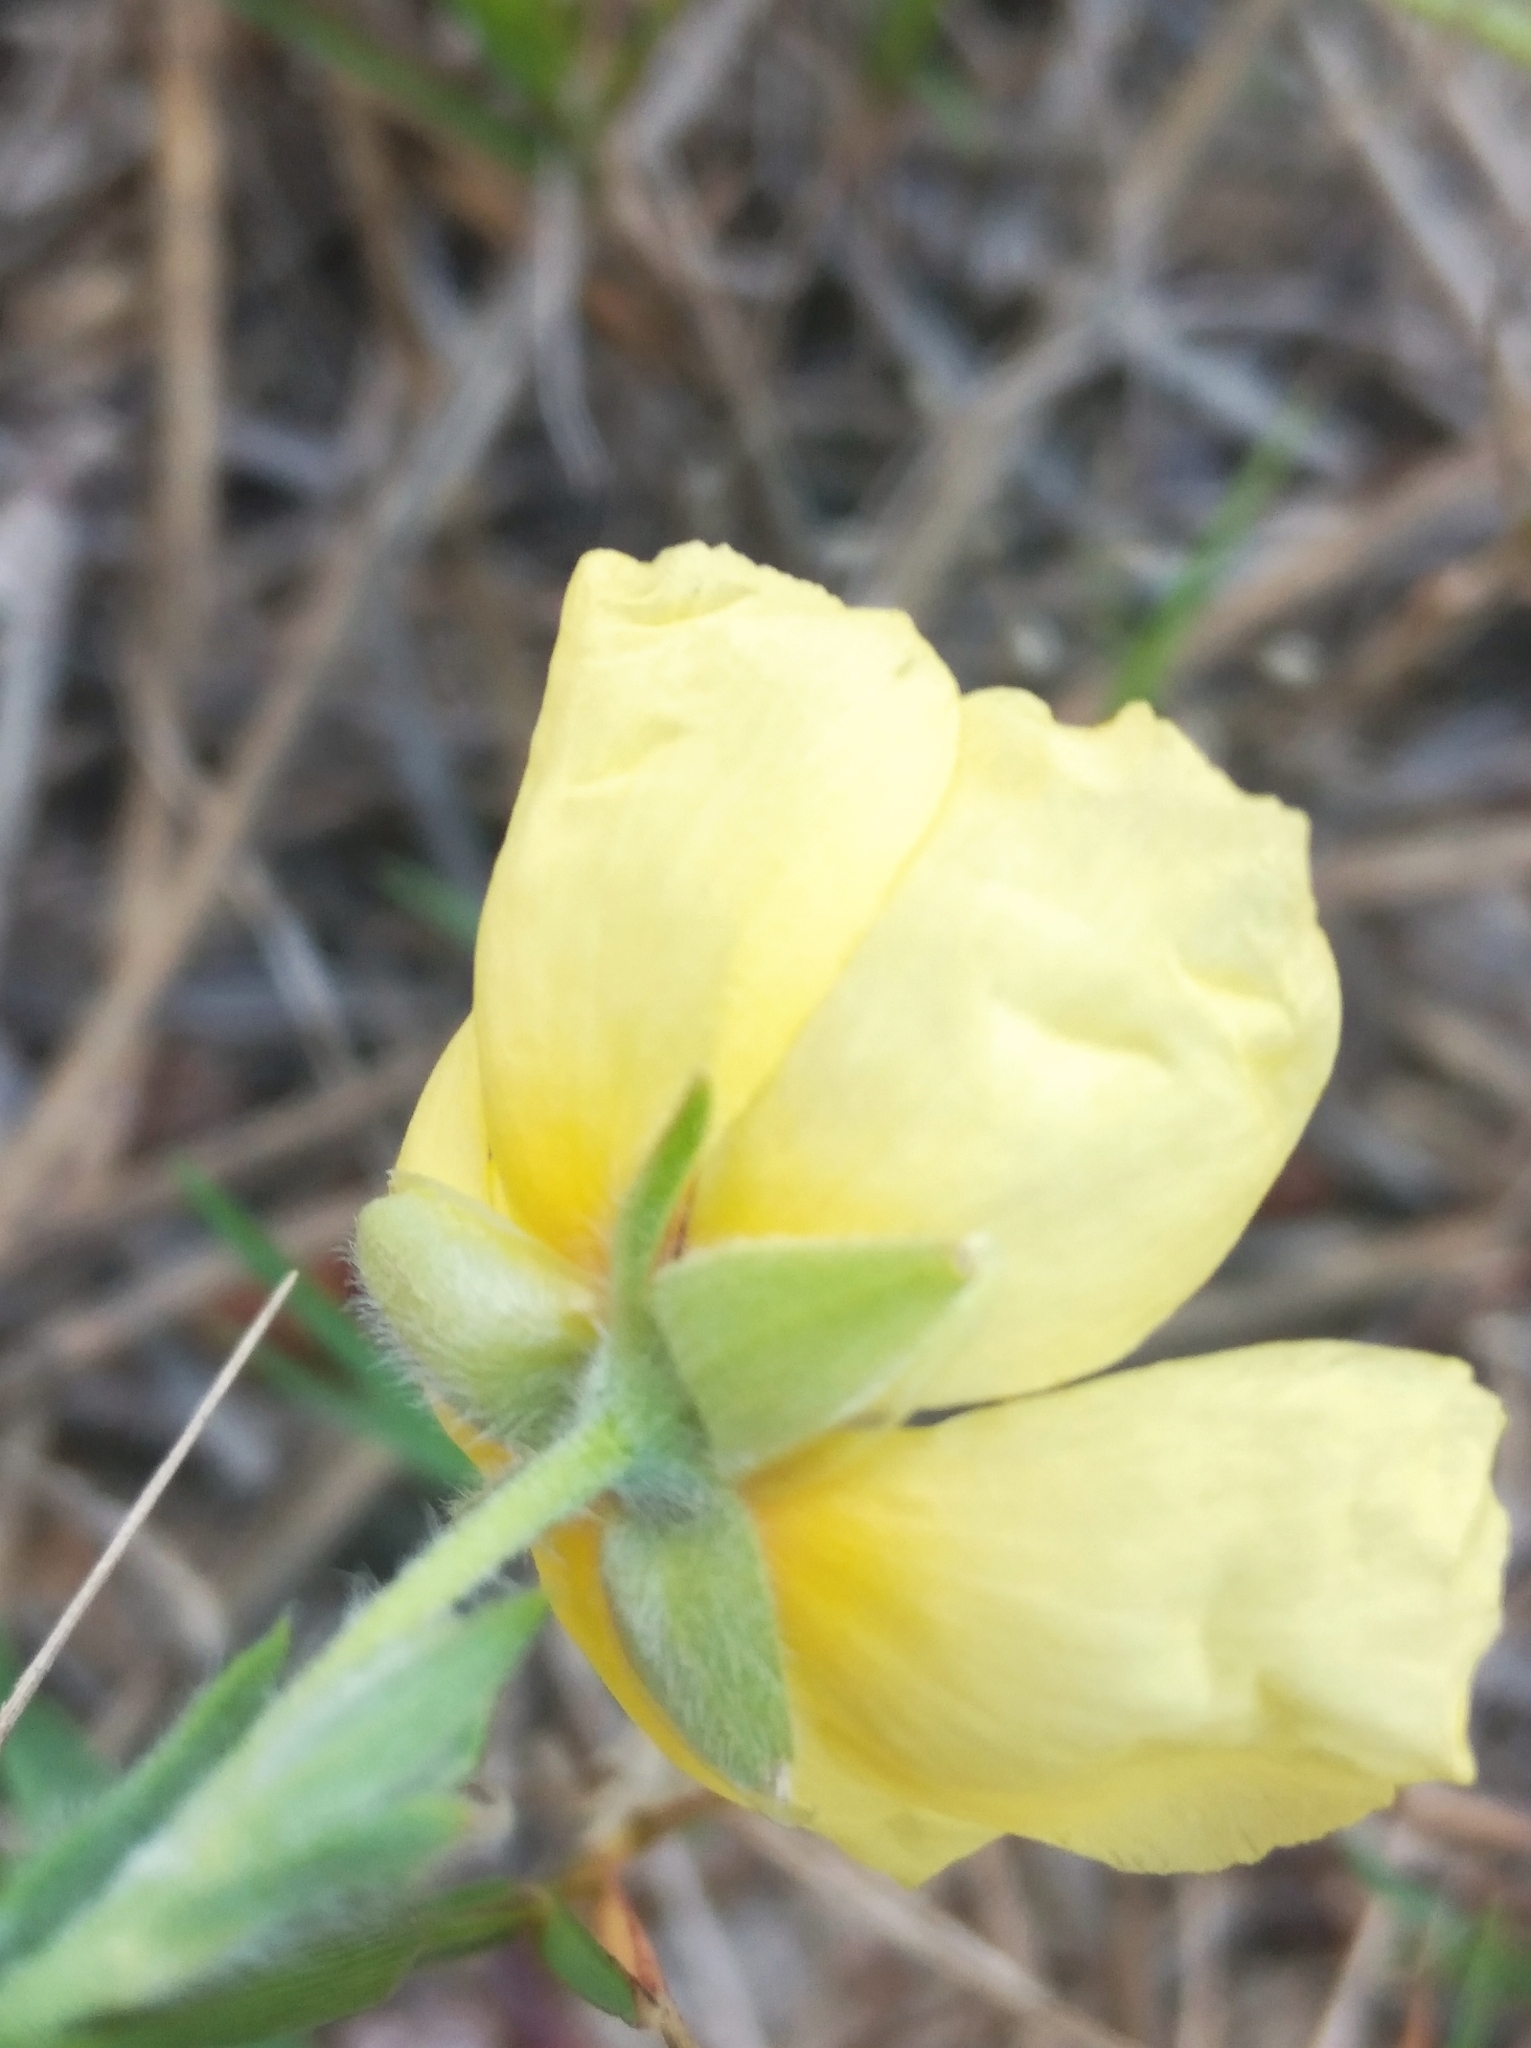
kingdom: Plantae
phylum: Tracheophyta
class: Magnoliopsida
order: Malvales
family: Cistaceae
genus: Crocanthemum
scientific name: Crocanthemum brasiliensis
